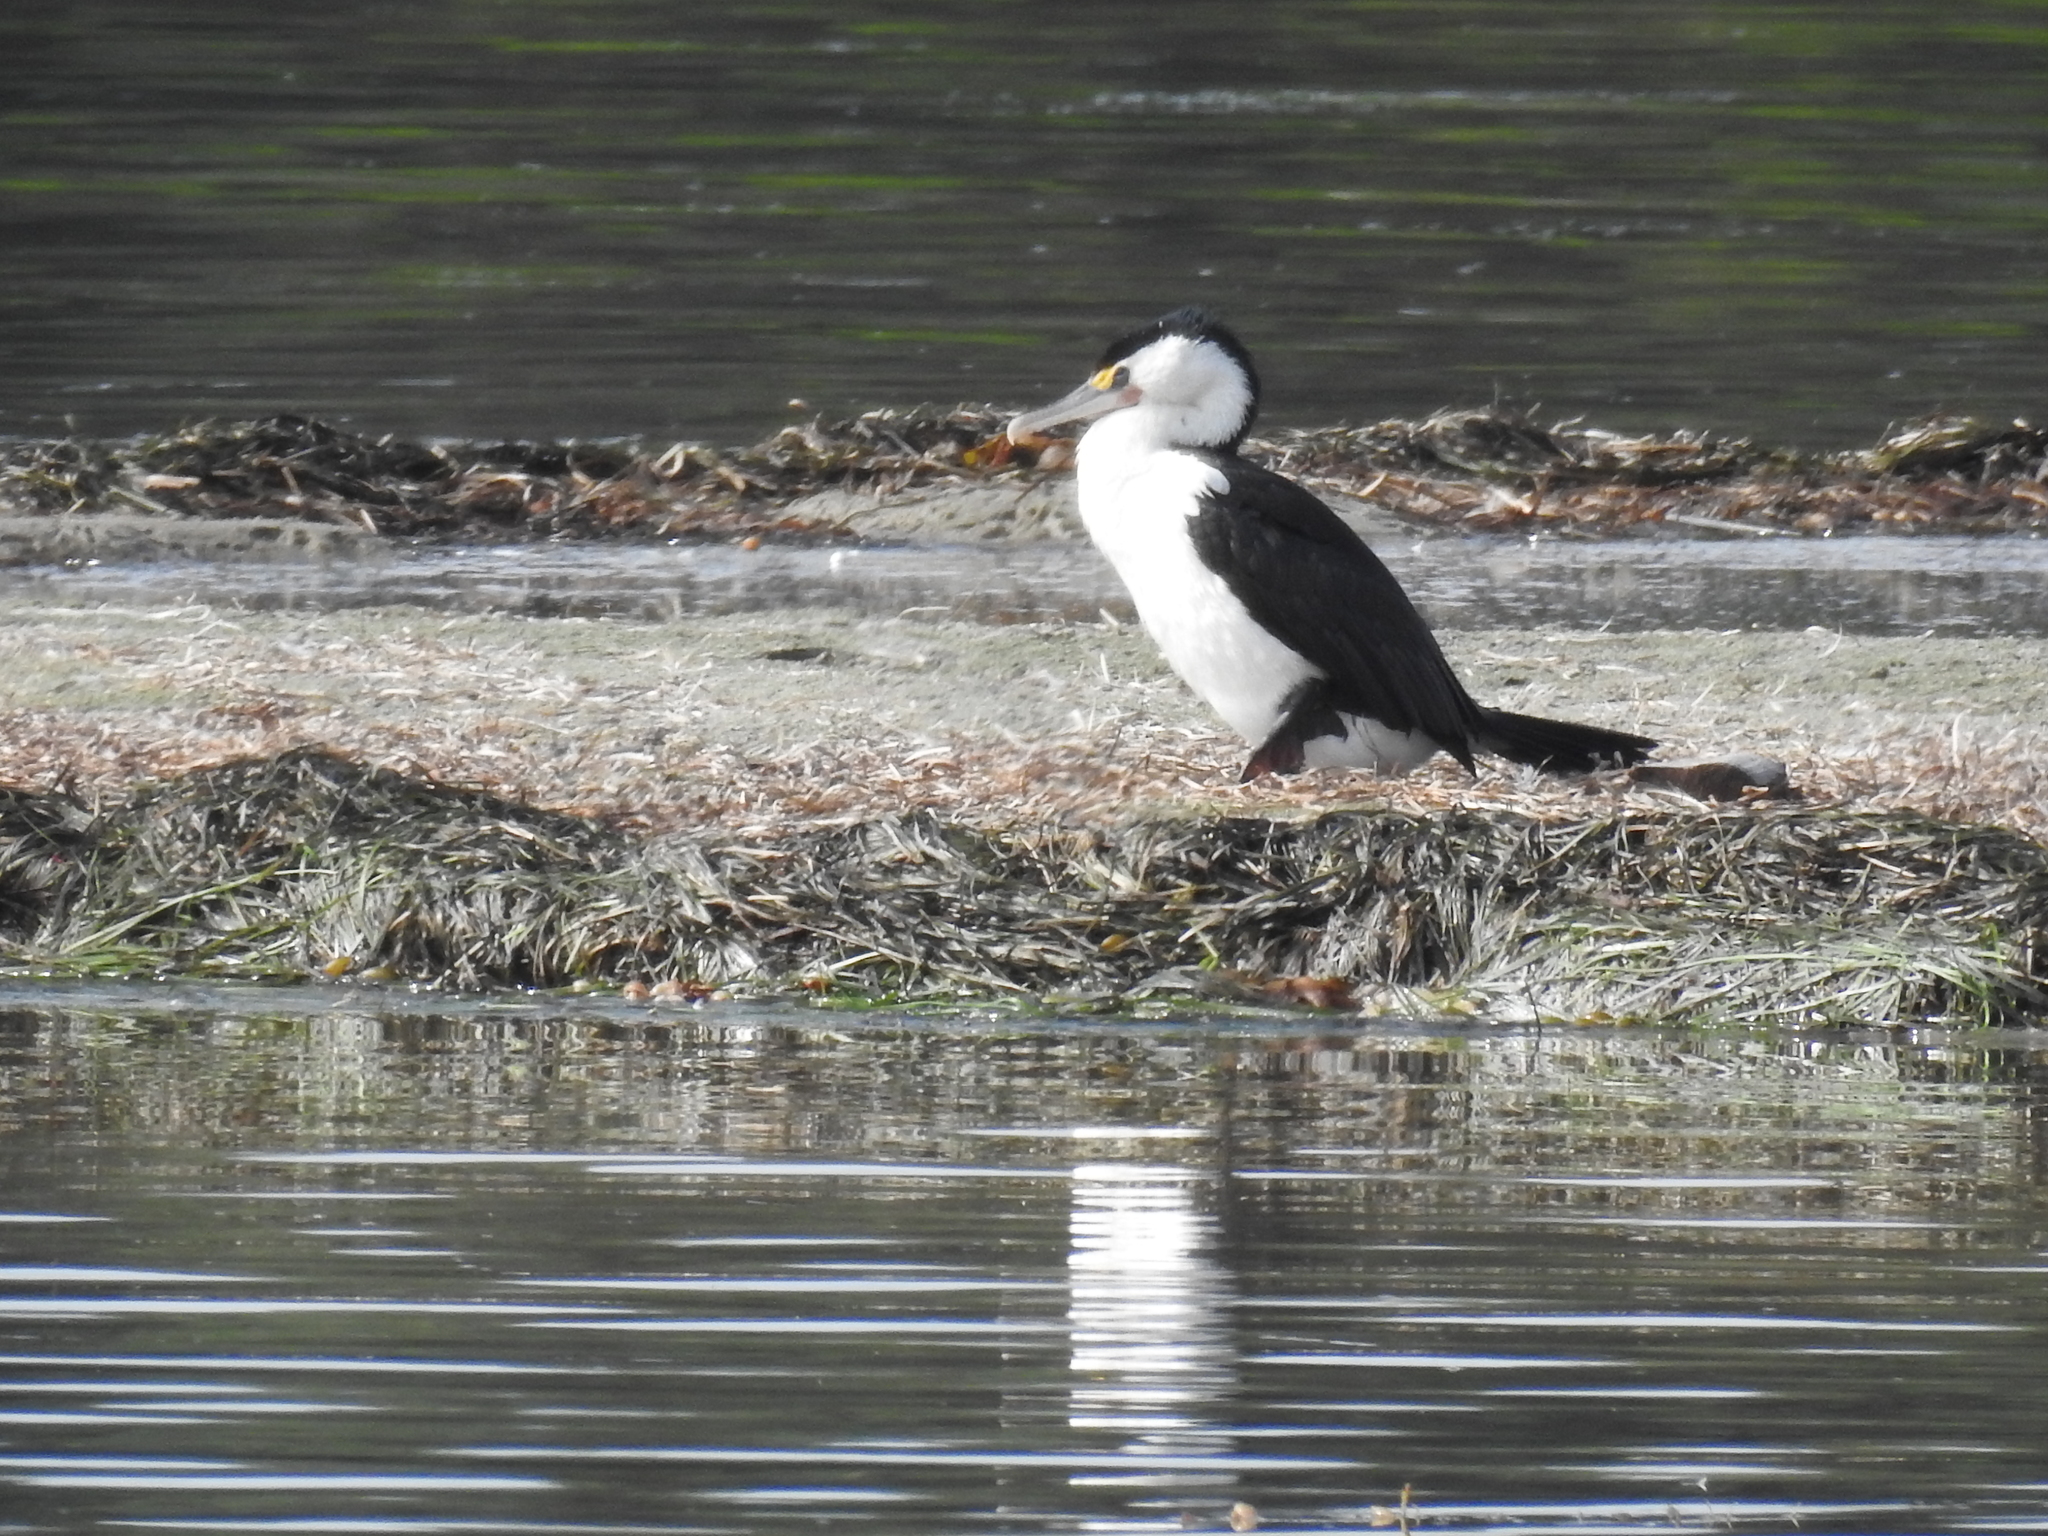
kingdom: Animalia
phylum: Chordata
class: Aves
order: Suliformes
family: Phalacrocoracidae
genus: Phalacrocorax
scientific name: Phalacrocorax varius
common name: Pied cormorant
